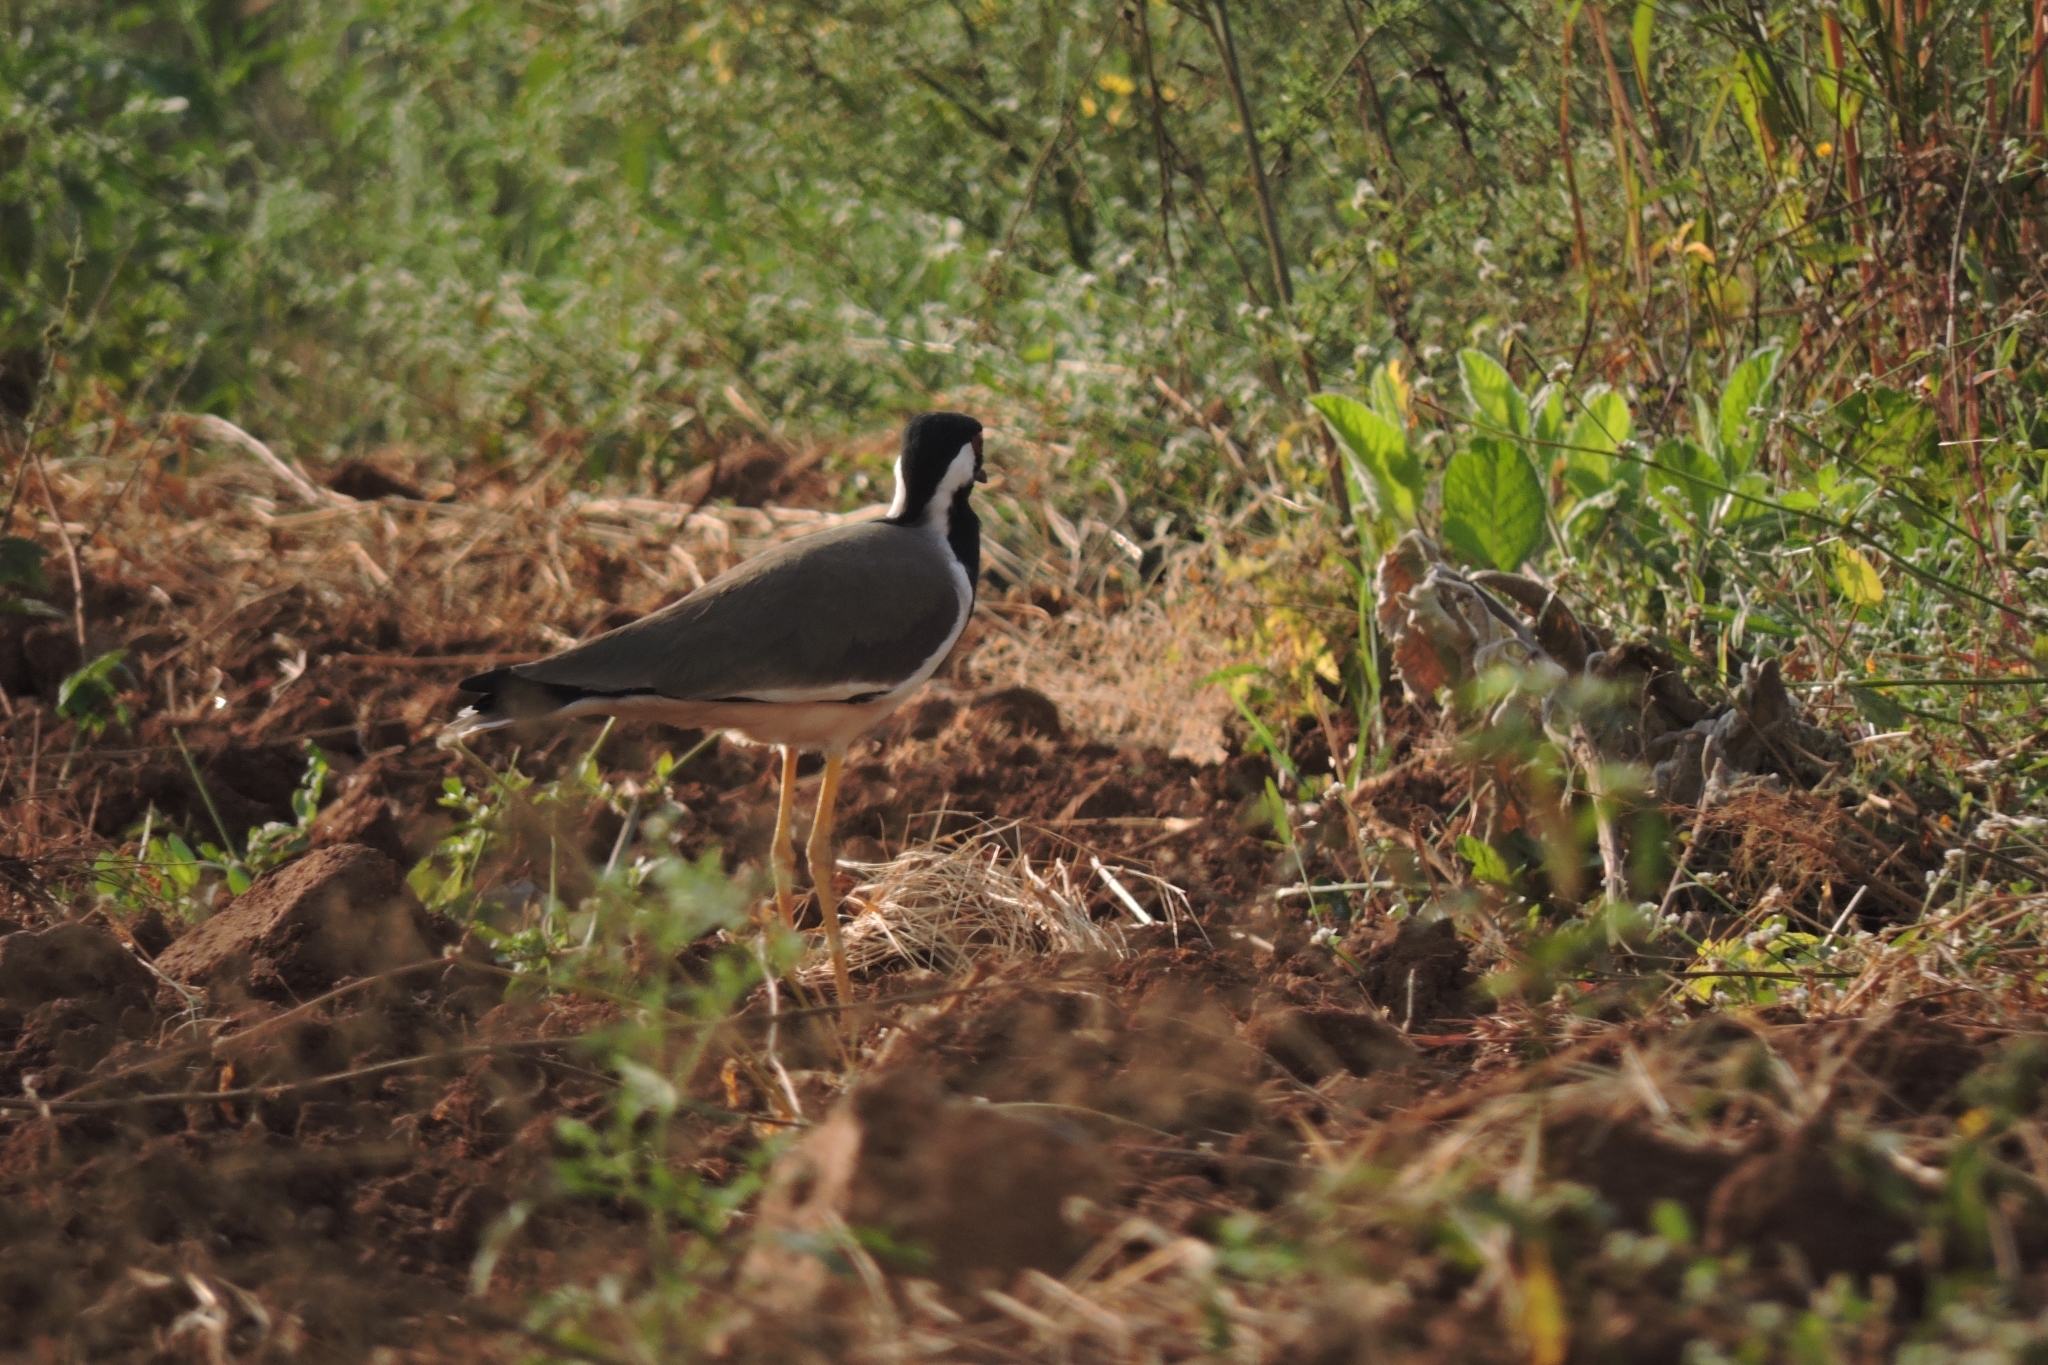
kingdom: Animalia
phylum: Chordata
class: Aves
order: Charadriiformes
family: Charadriidae
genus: Vanellus
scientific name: Vanellus indicus
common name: Red-wattled lapwing
